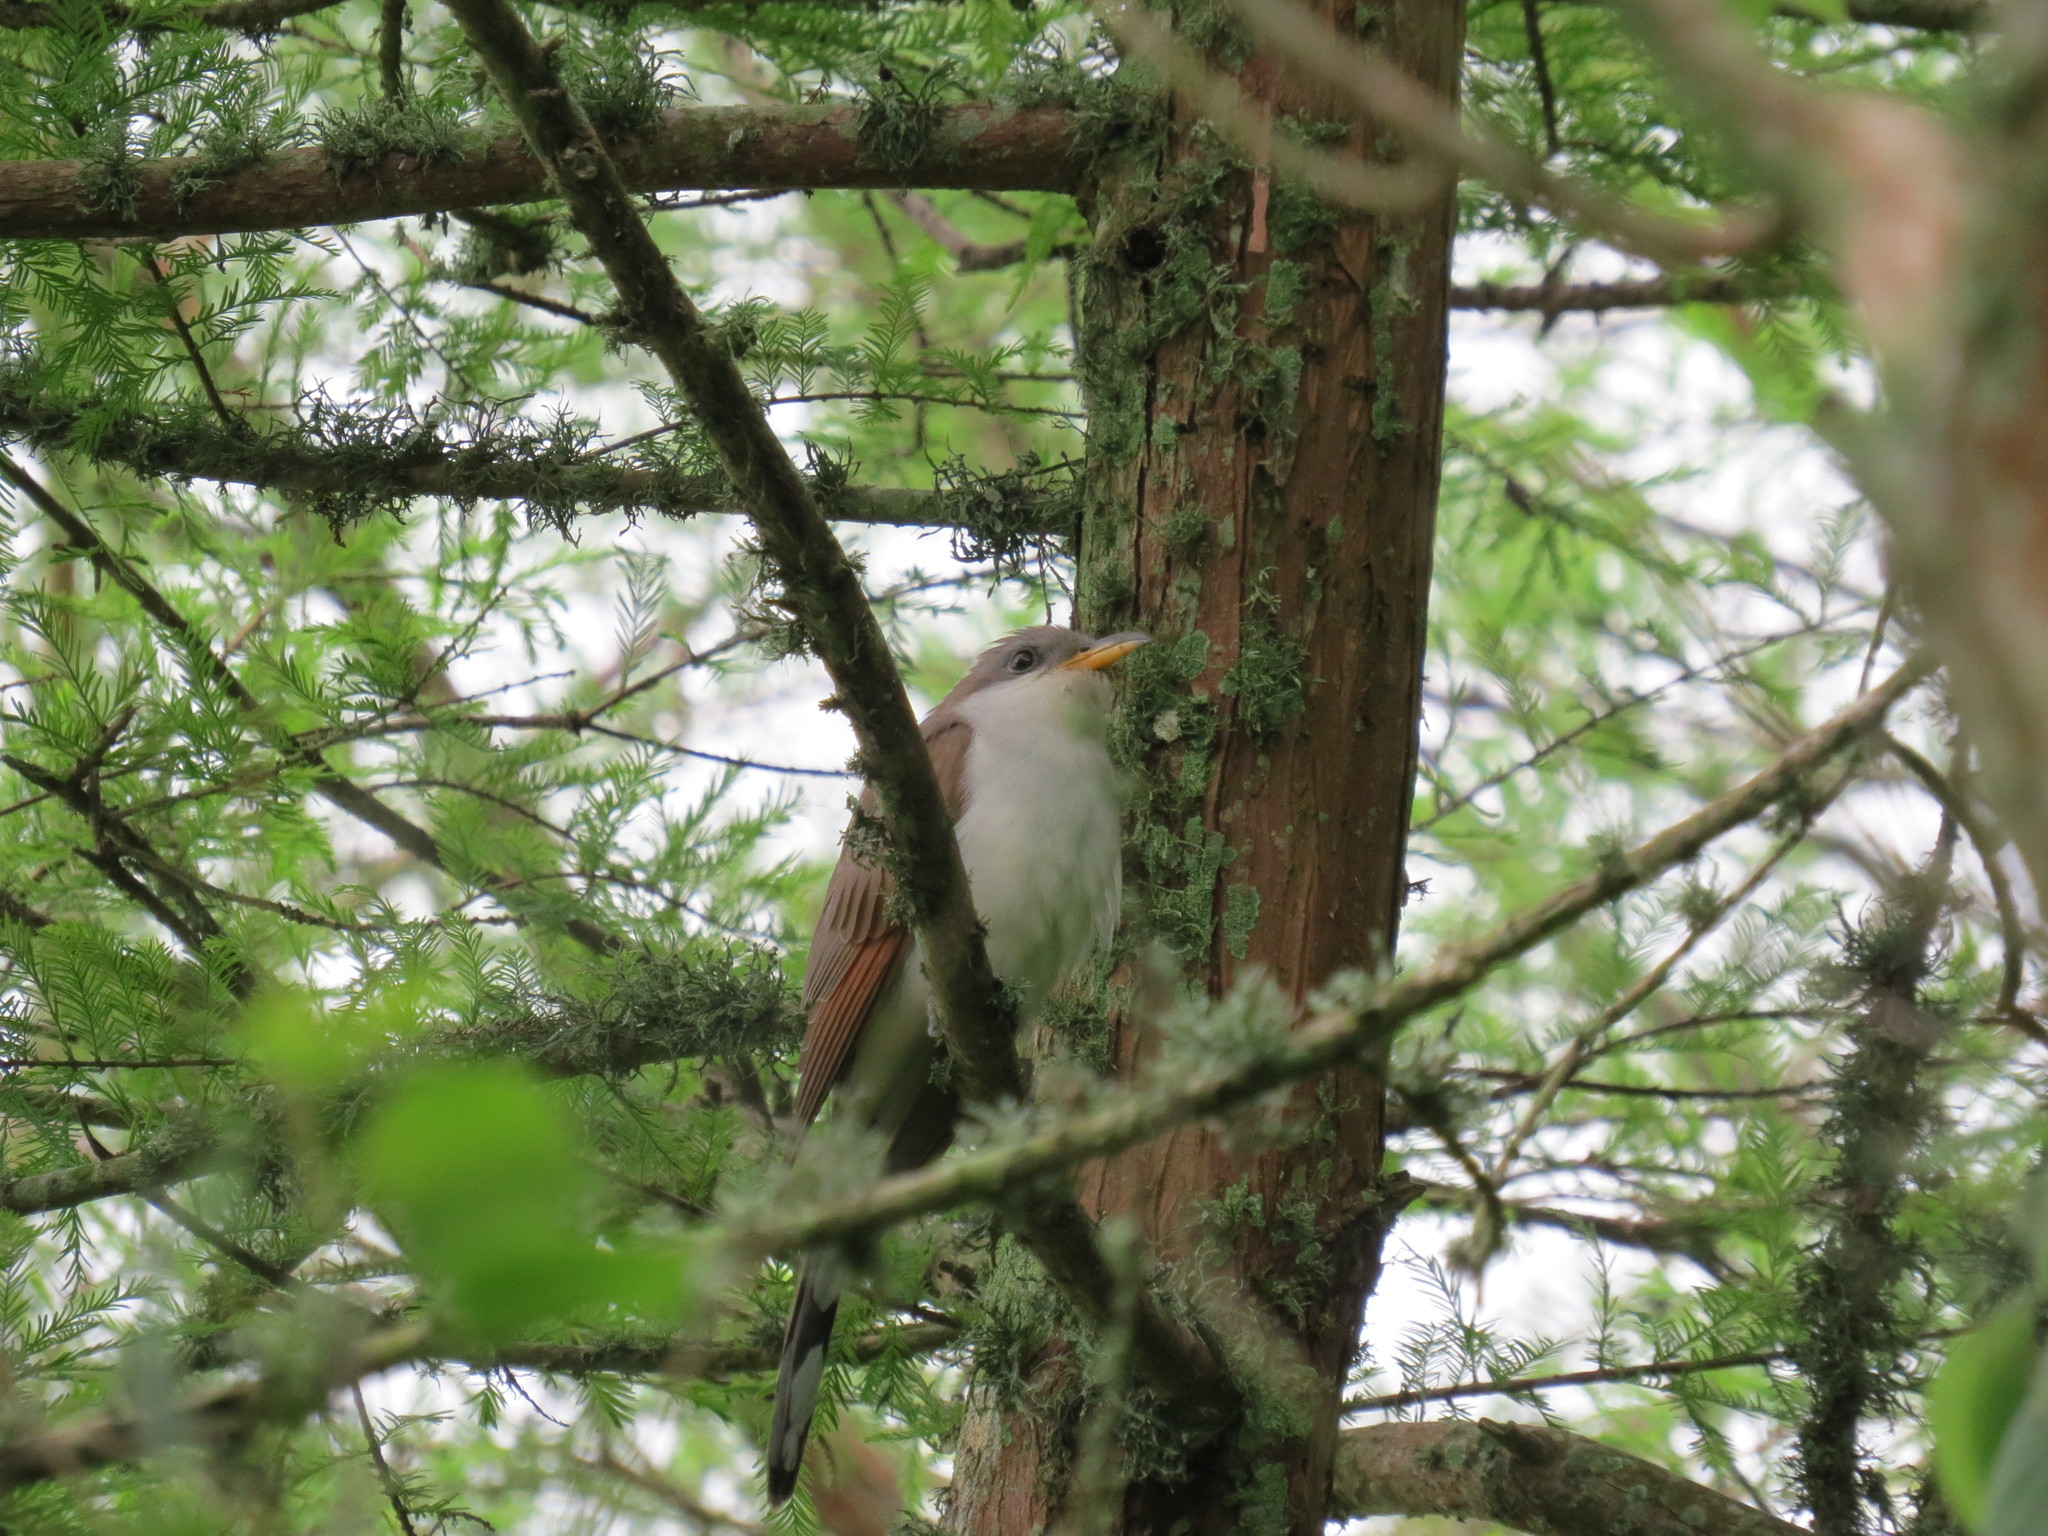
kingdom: Animalia
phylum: Chordata
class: Aves
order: Cuculiformes
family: Cuculidae
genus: Coccyzus
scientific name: Coccyzus americanus
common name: Yellow-billed cuckoo
